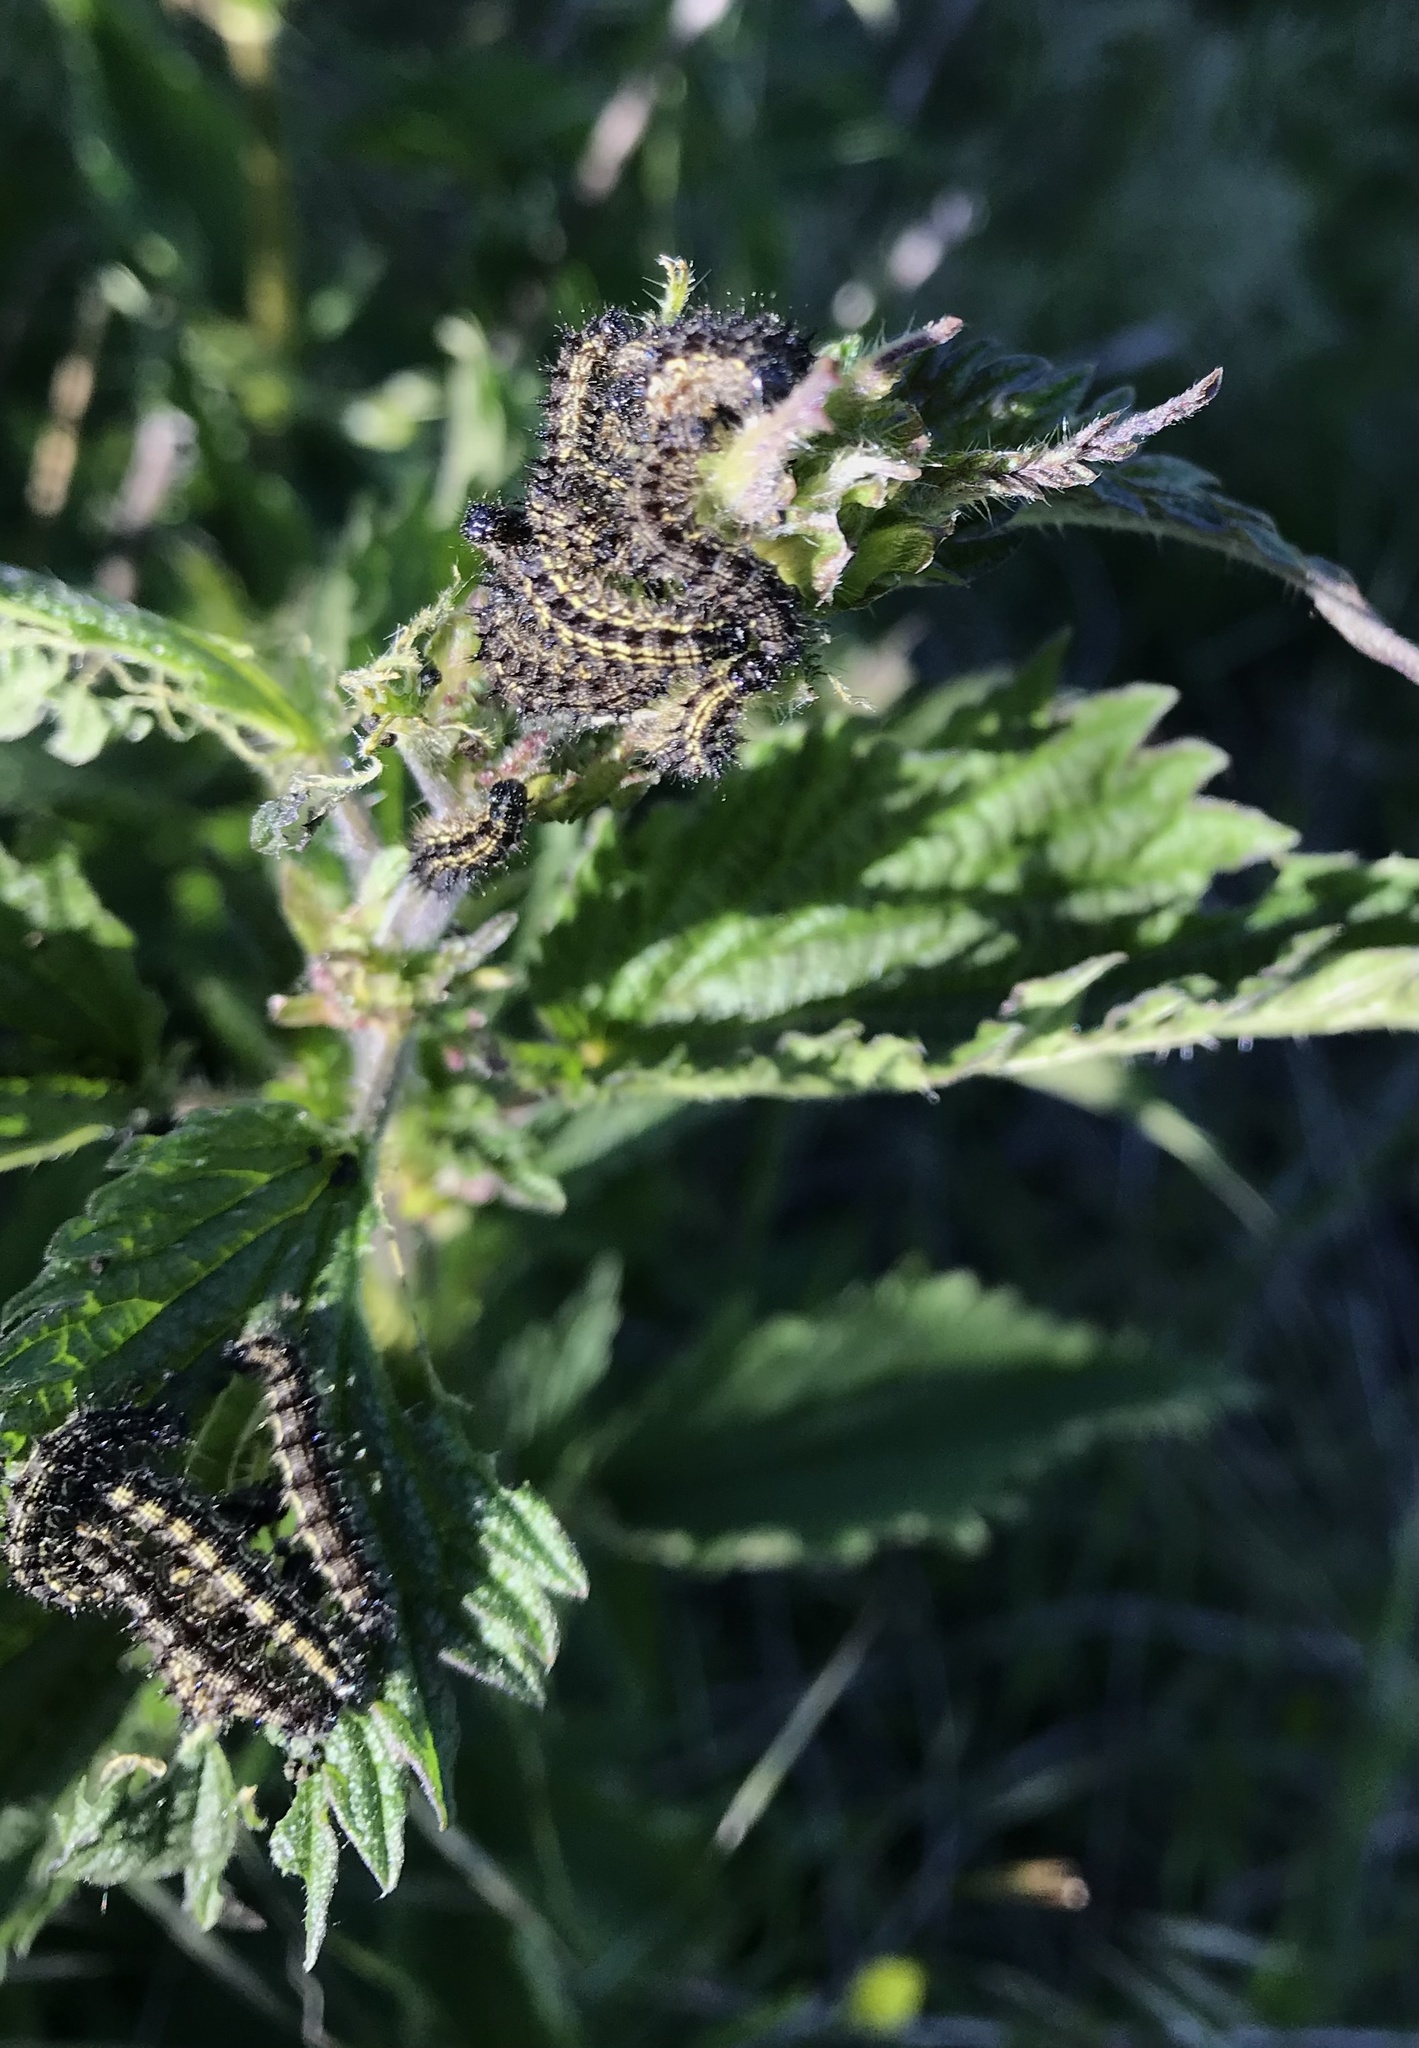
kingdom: Animalia
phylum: Arthropoda
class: Insecta
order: Lepidoptera
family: Nymphalidae
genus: Aglais
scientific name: Aglais urticae
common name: Small tortoiseshell
